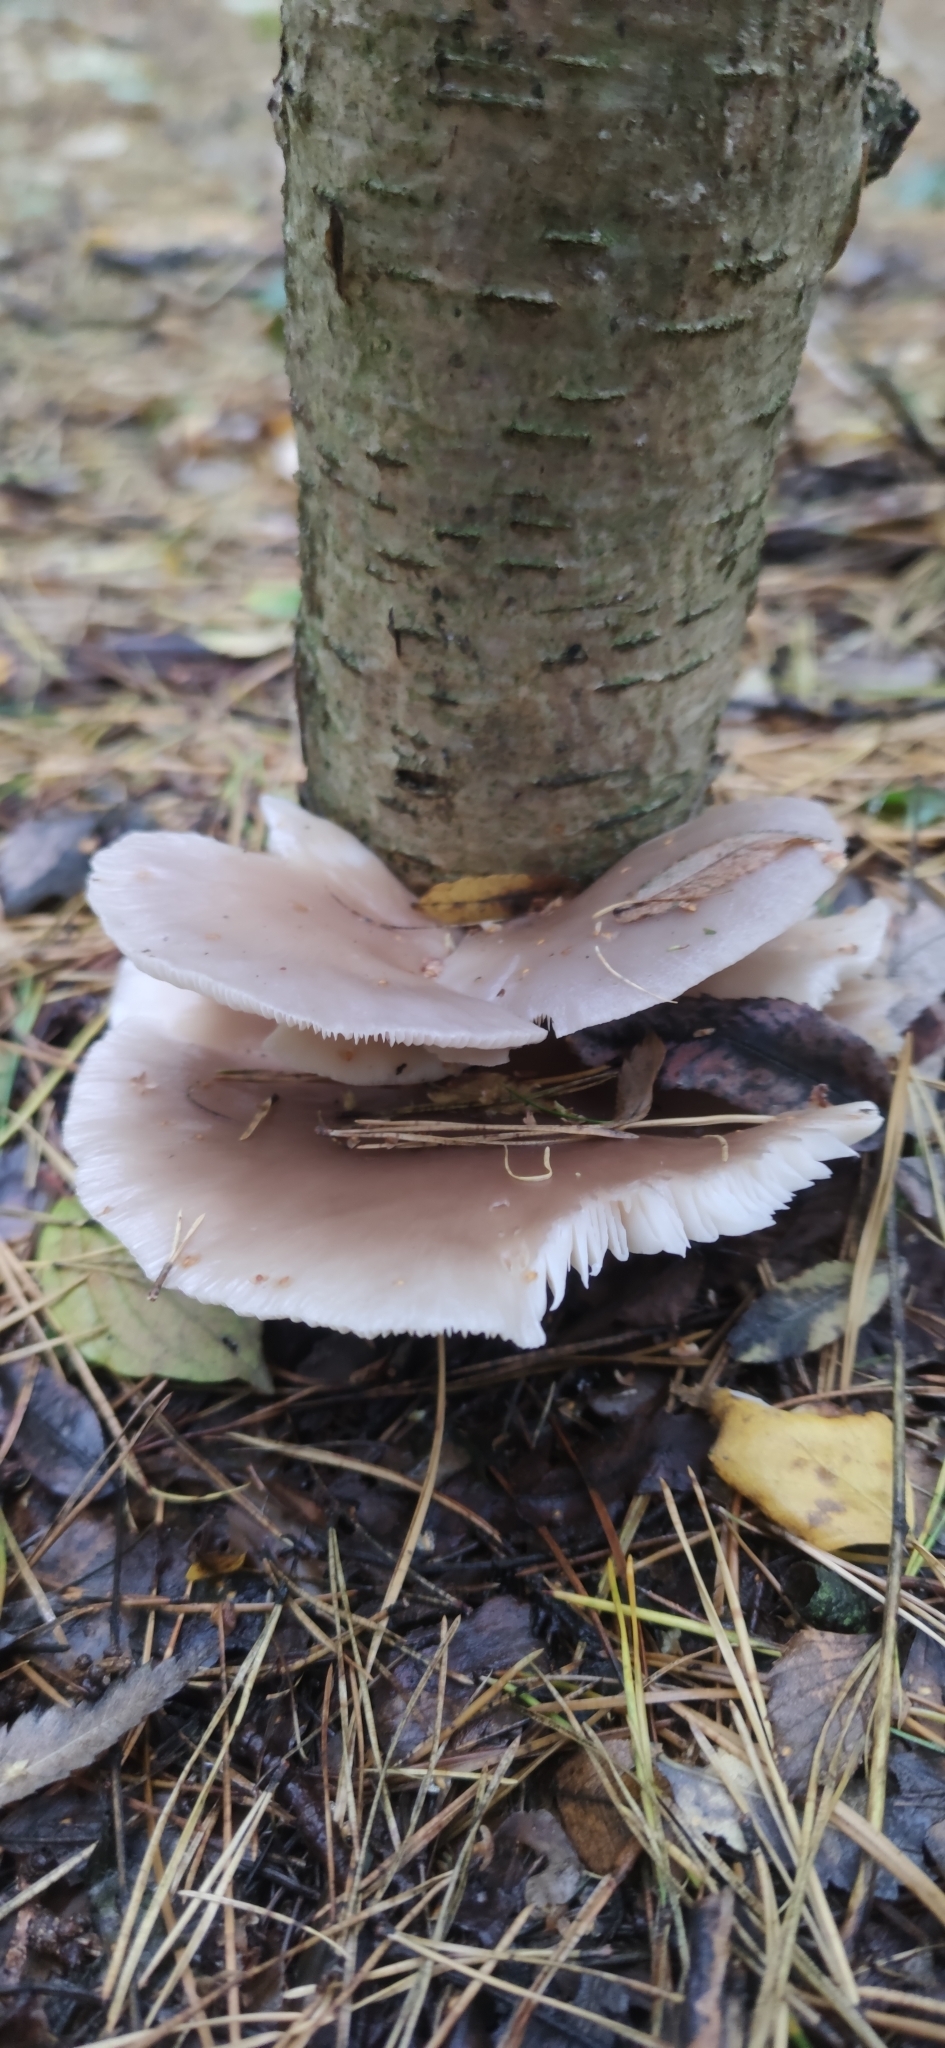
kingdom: Fungi
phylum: Basidiomycota
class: Agaricomycetes
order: Agaricales
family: Pleurotaceae
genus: Pleurotus
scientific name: Pleurotus ostreatus
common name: Oyster mushroom
